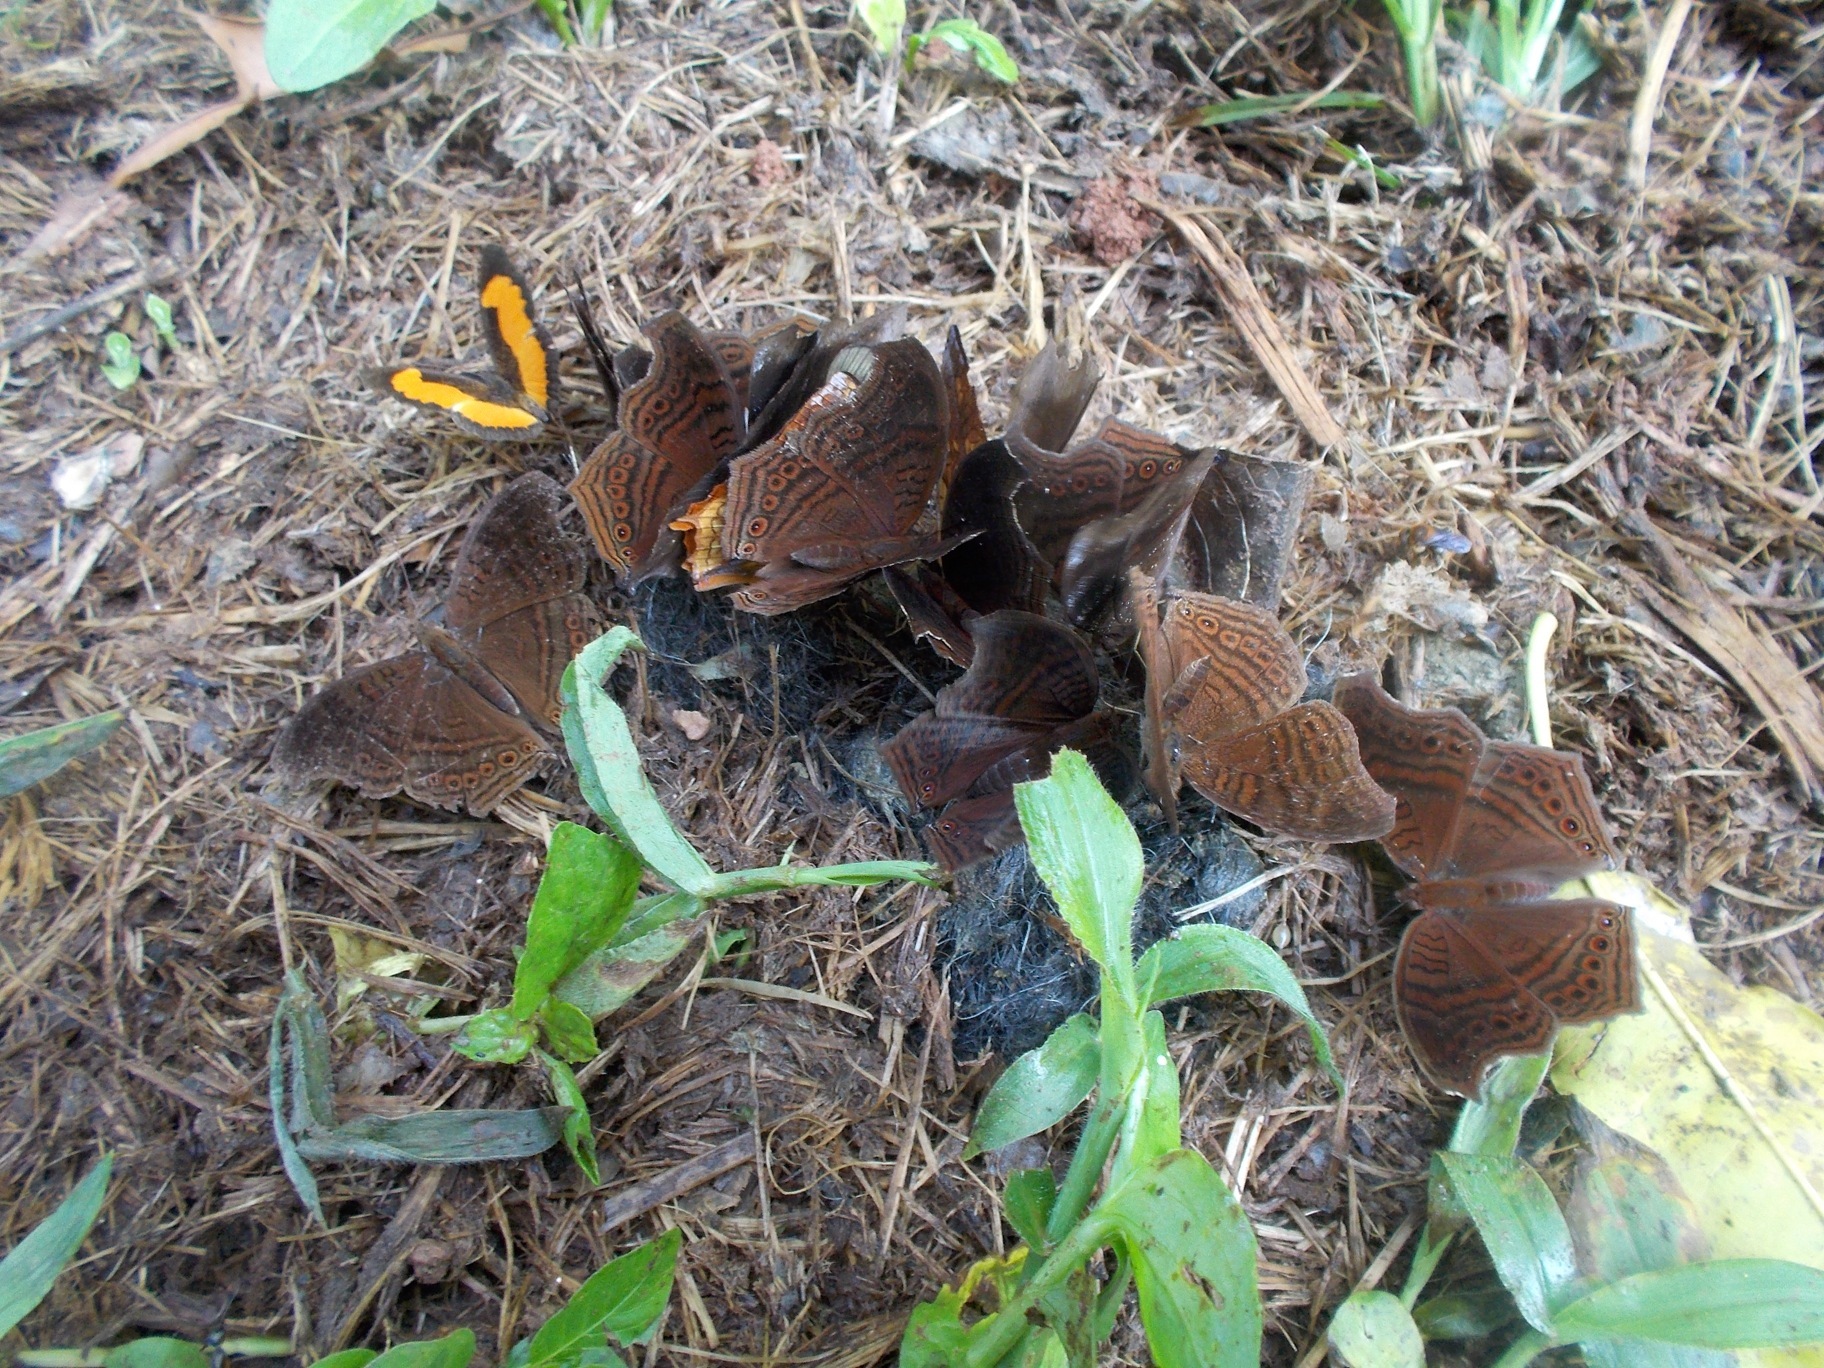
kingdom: Animalia
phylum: Arthropoda
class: Insecta
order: Lepidoptera
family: Nymphalidae
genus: Vanessula
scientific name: Vanessula milca
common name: Lady's maid butterfly
